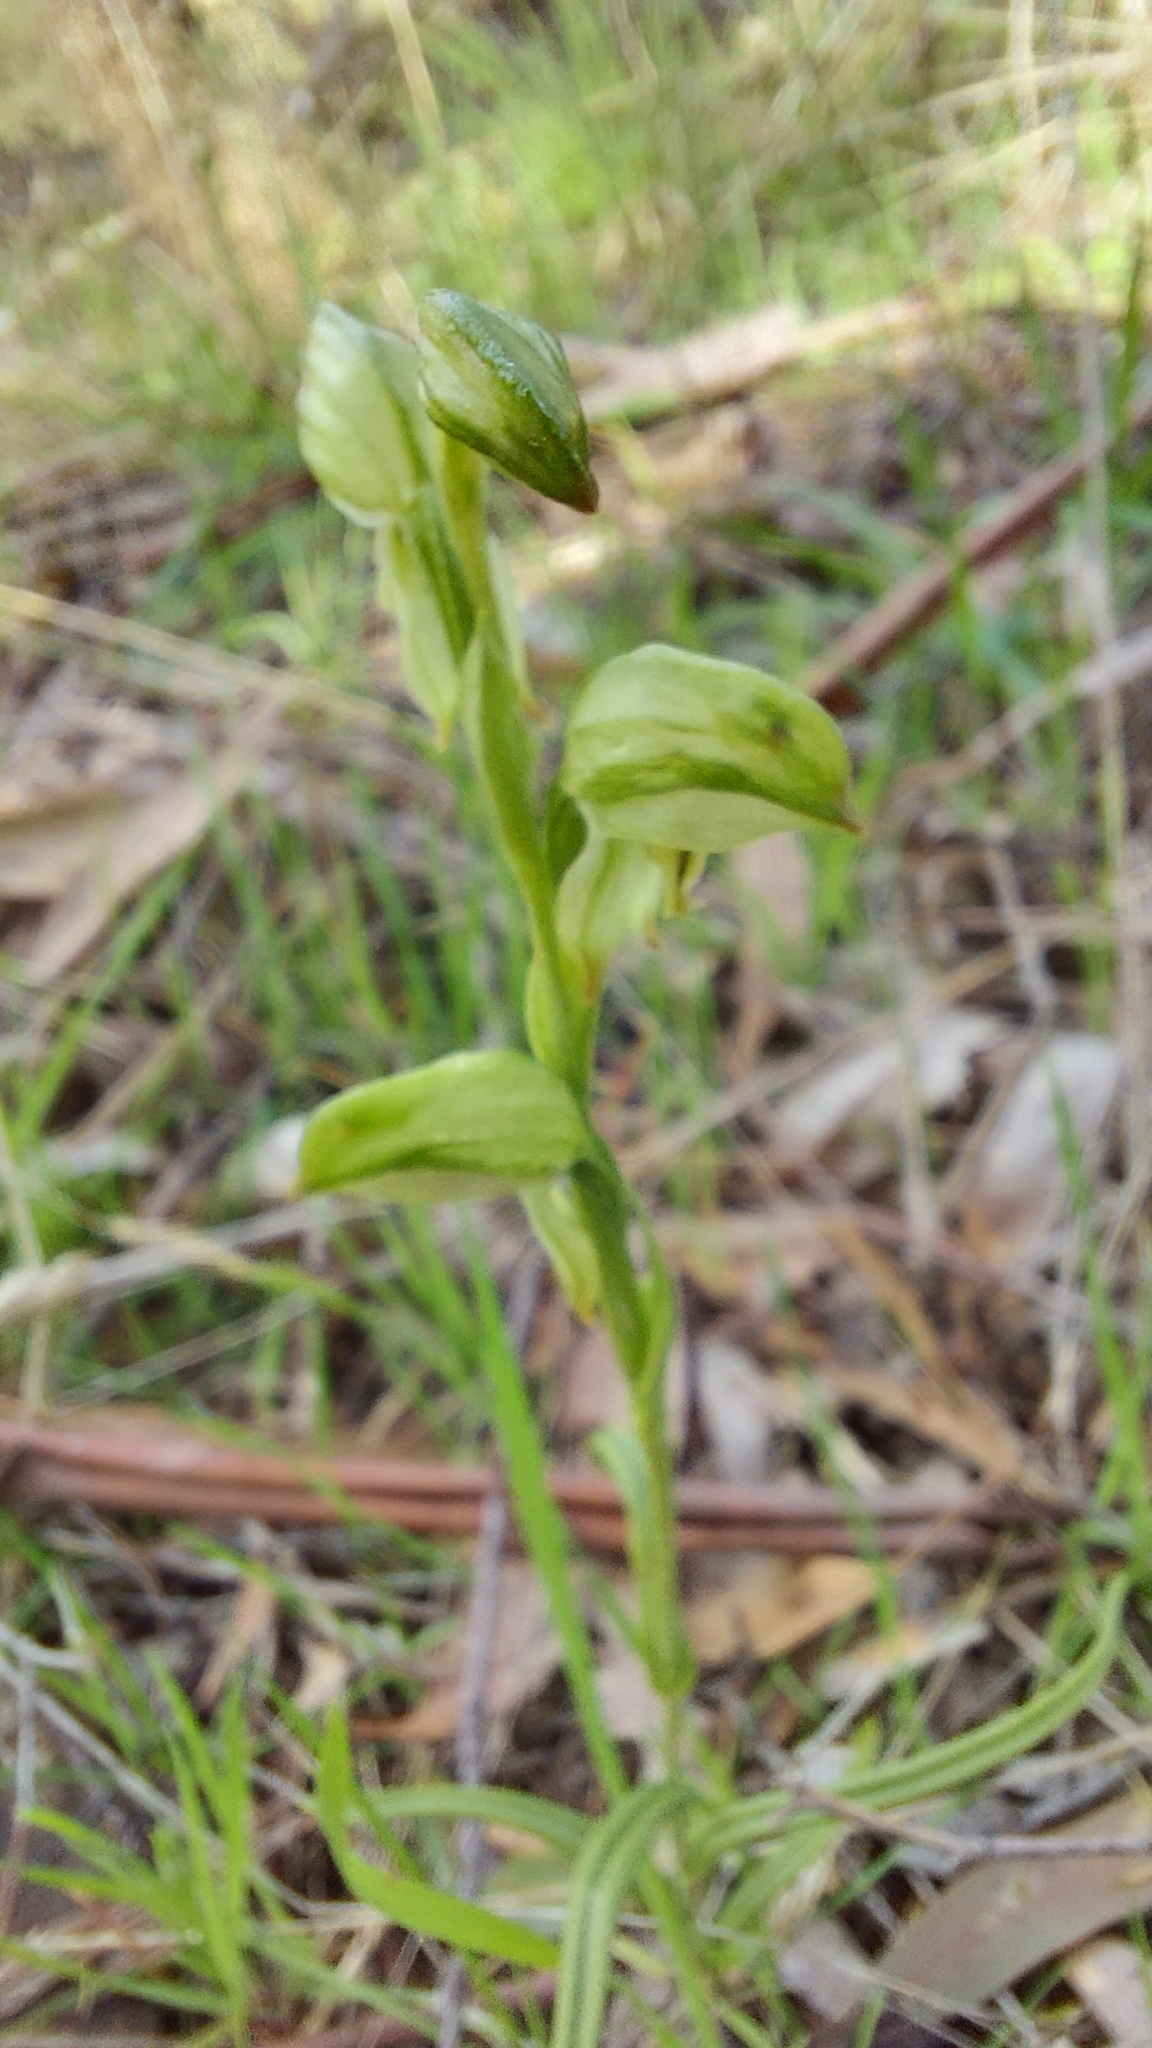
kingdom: Plantae
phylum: Tracheophyta
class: Liliopsida
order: Asparagales
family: Orchidaceae
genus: Pterostylis
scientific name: Pterostylis melagramma
